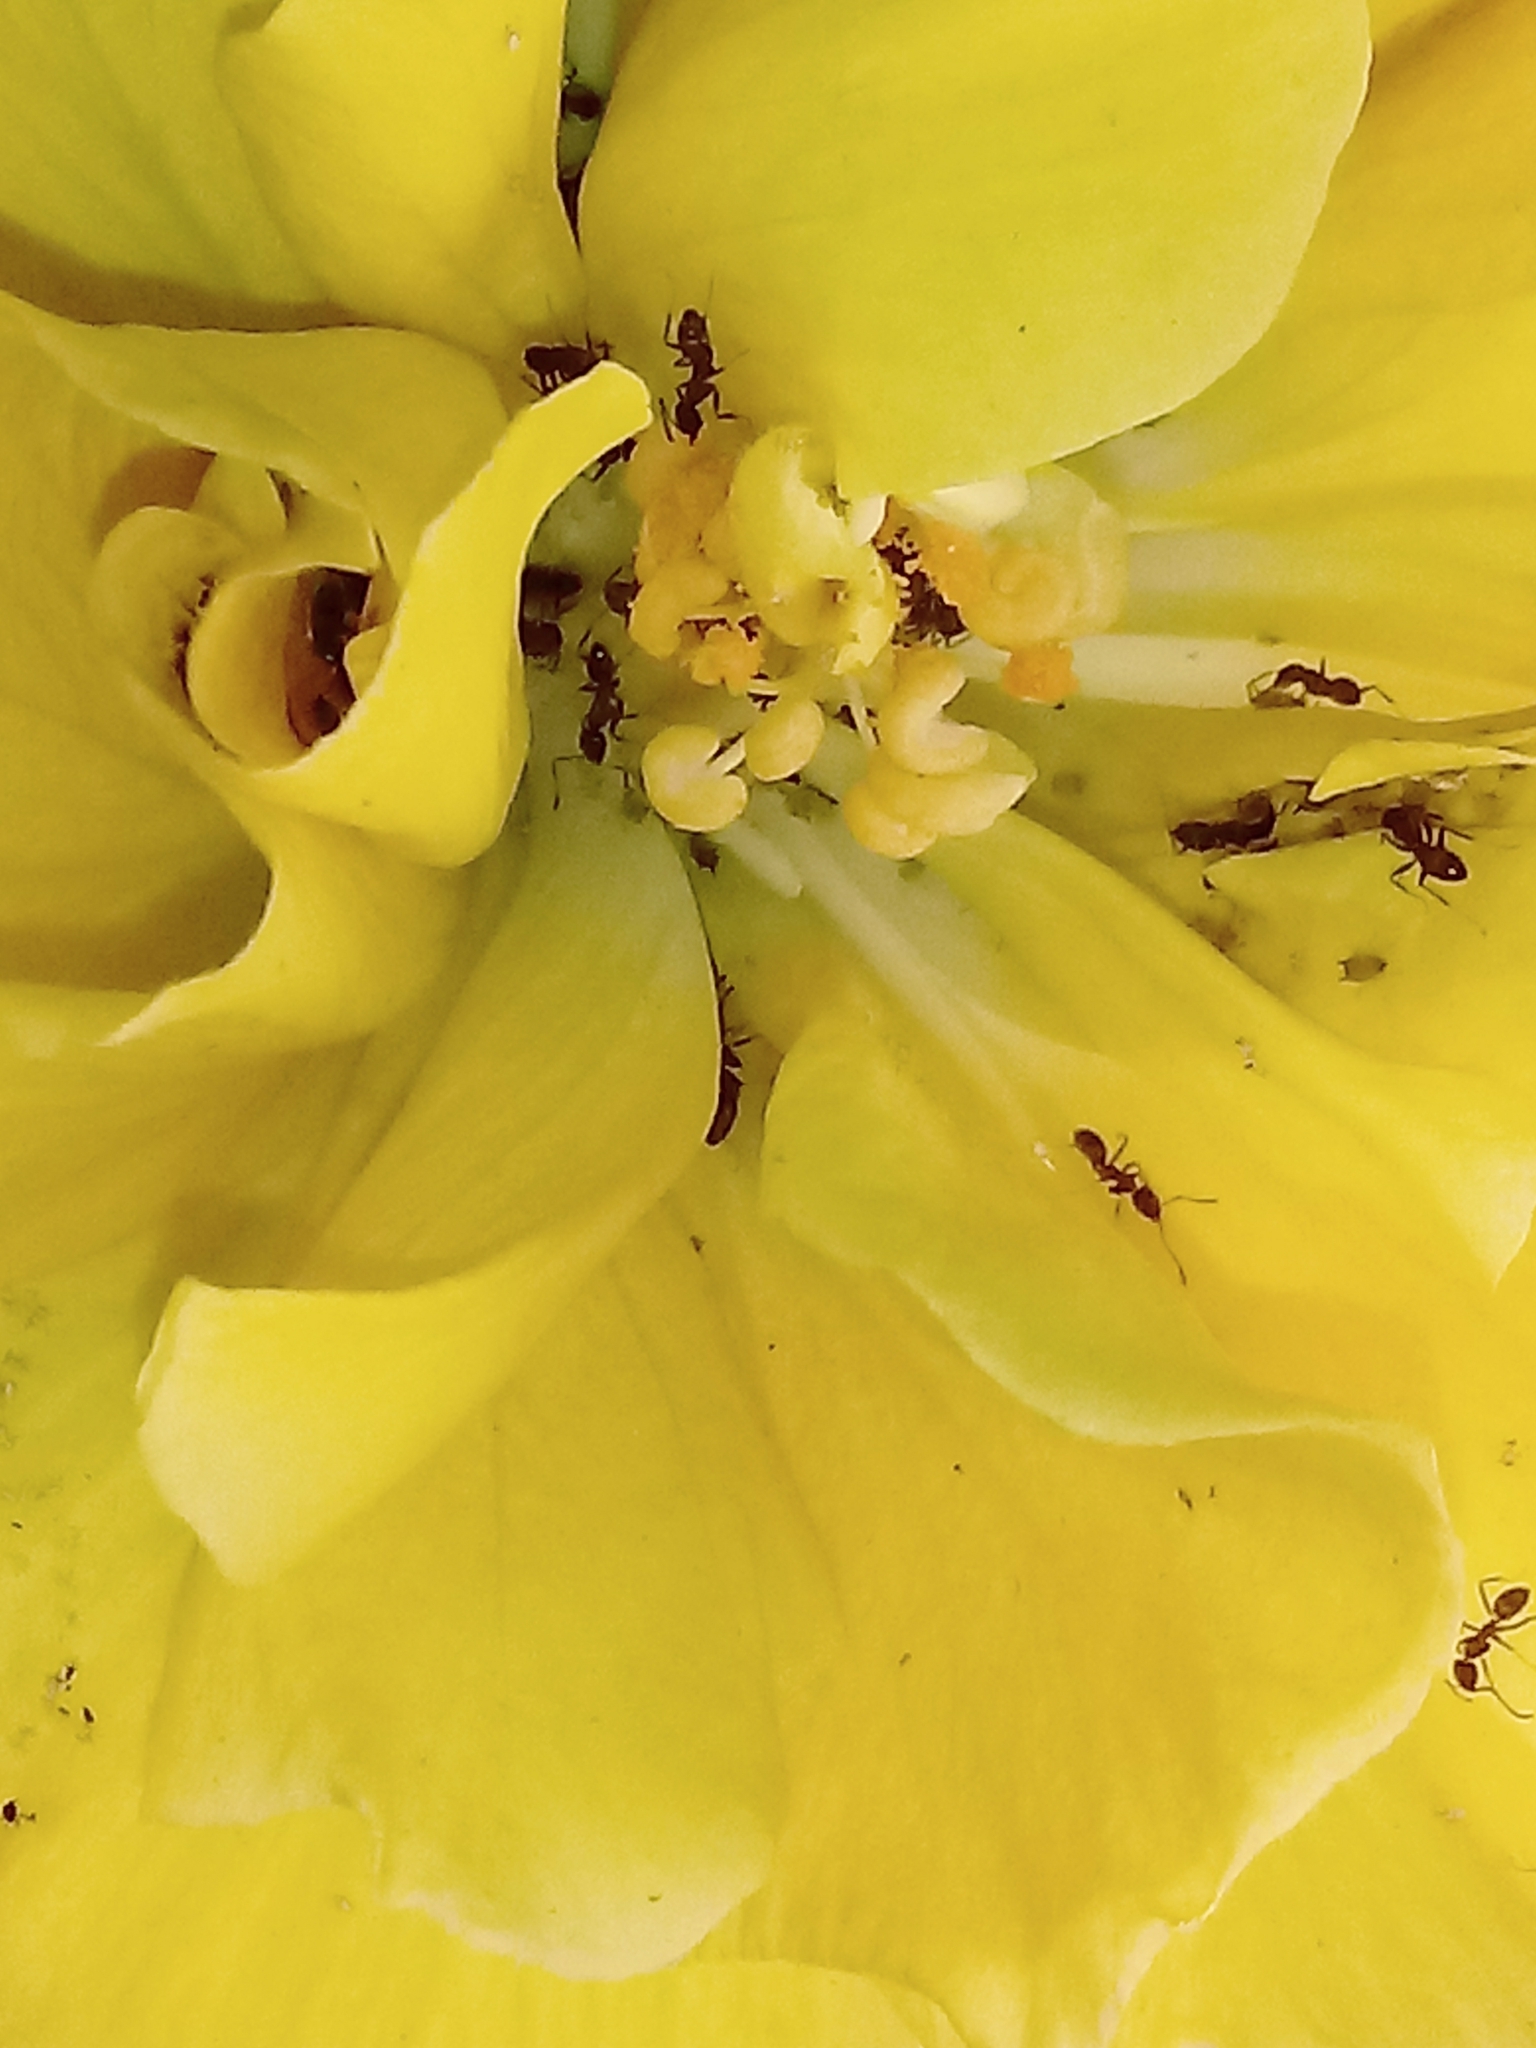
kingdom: Animalia
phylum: Arthropoda
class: Insecta
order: Hymenoptera
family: Formicidae
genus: Linepithema
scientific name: Linepithema humile
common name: Argentine ant
